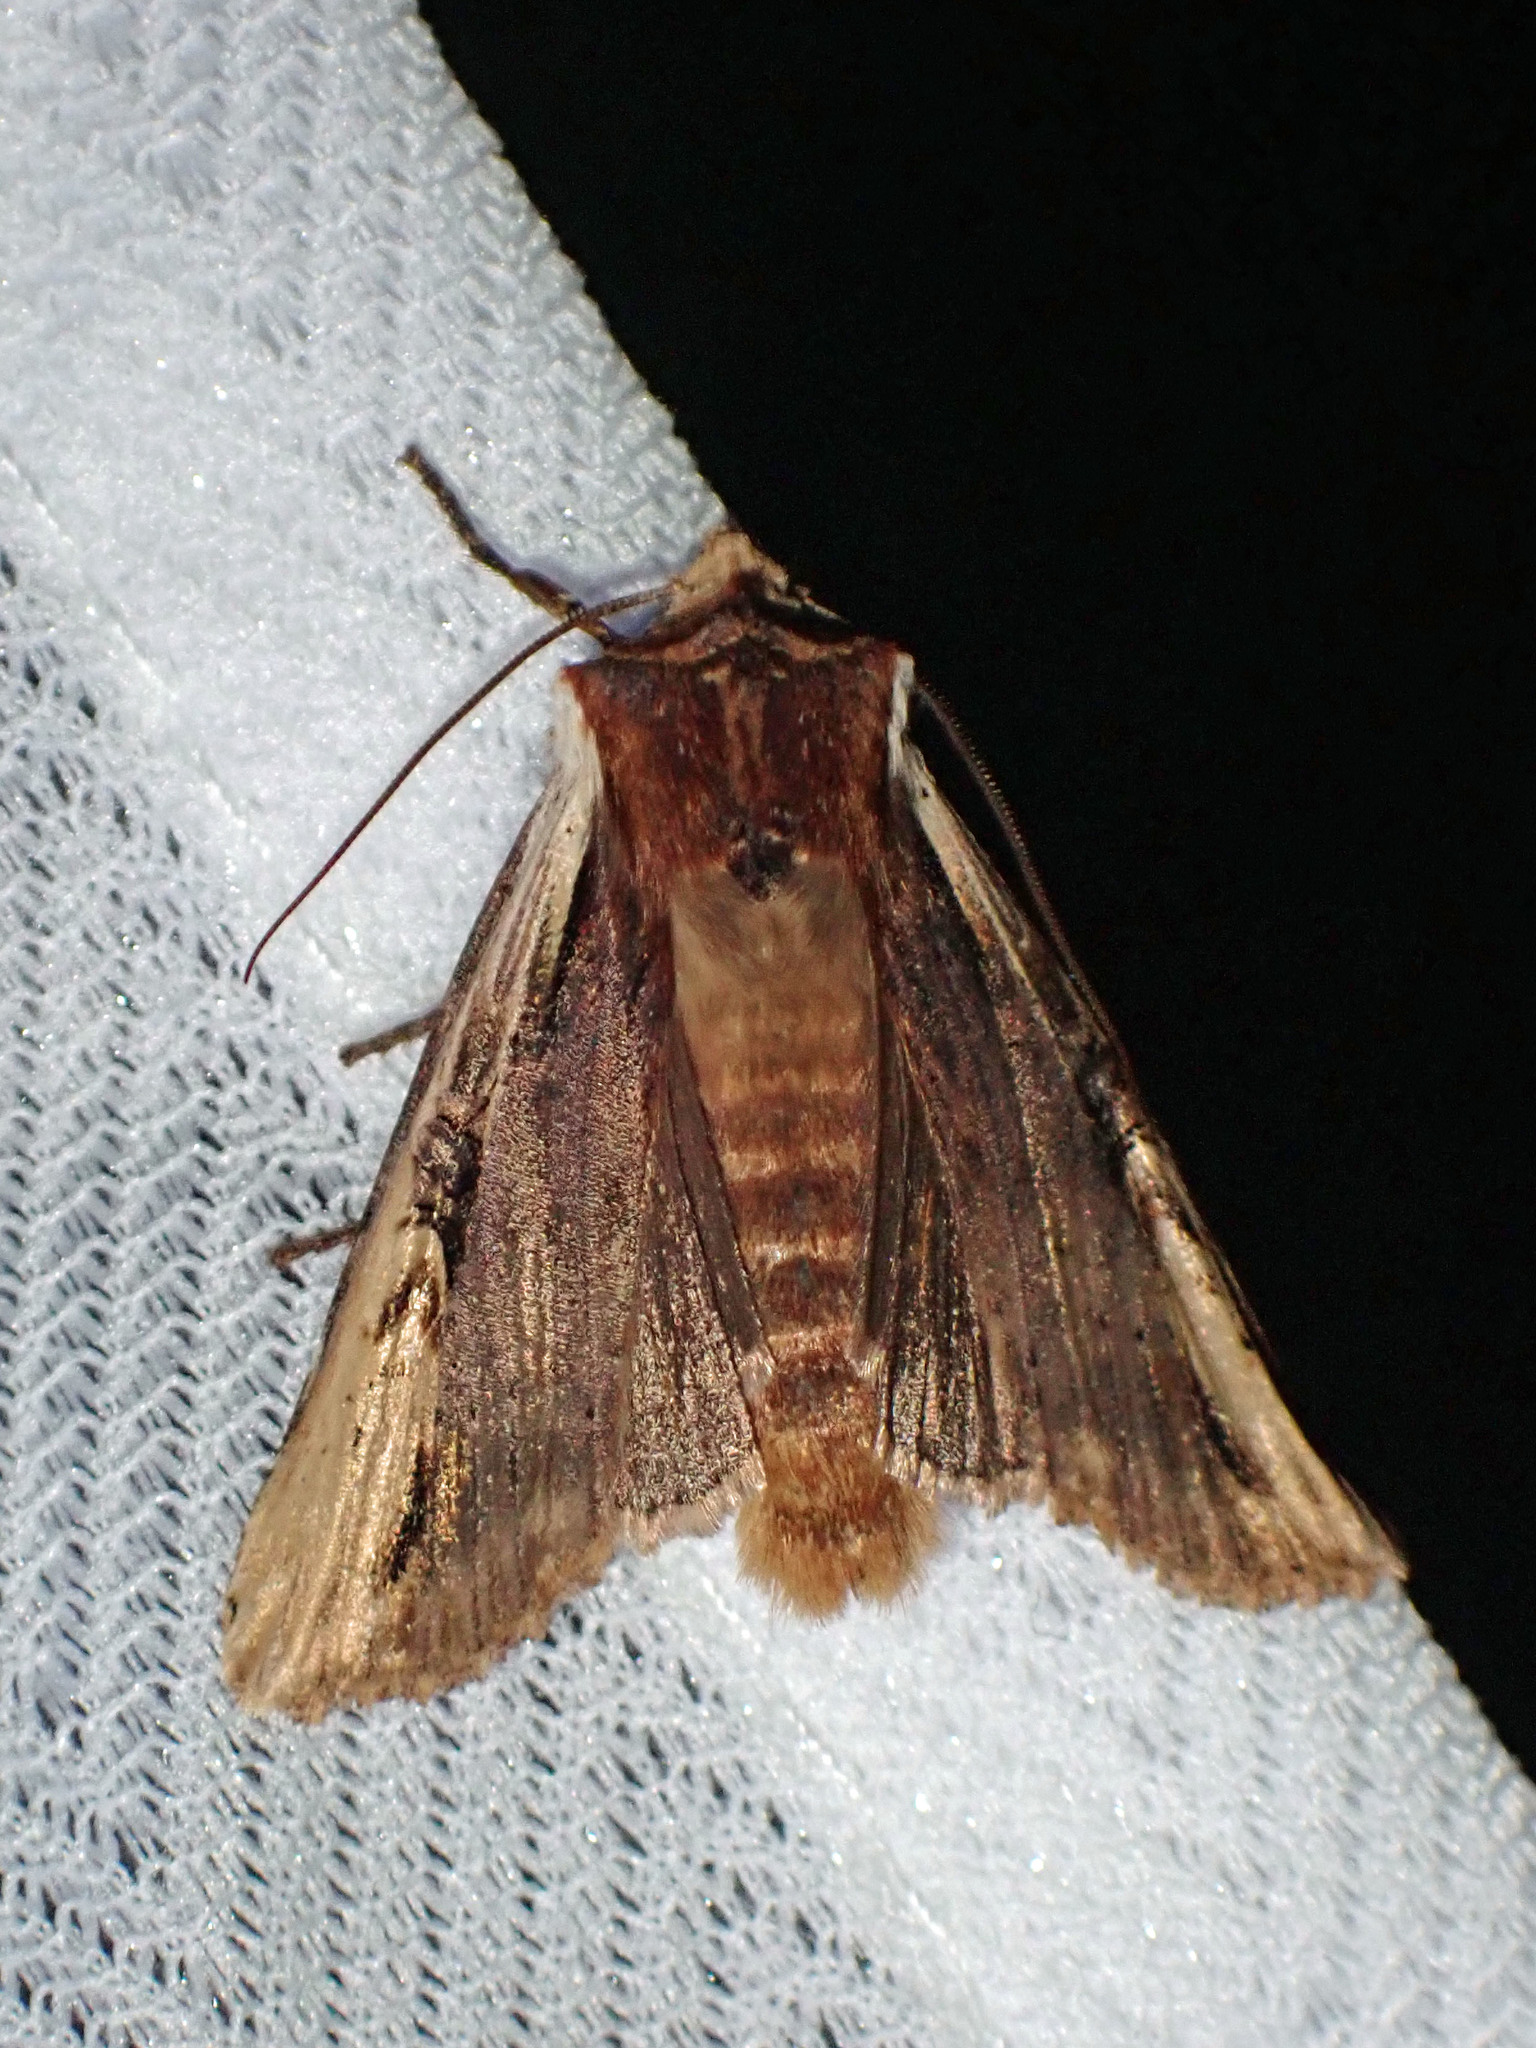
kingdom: Animalia
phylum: Arthropoda
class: Insecta
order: Lepidoptera
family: Noctuidae
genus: Xylena
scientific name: Xylena curvimacula
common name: Dot-and-dash swordgrass moth
